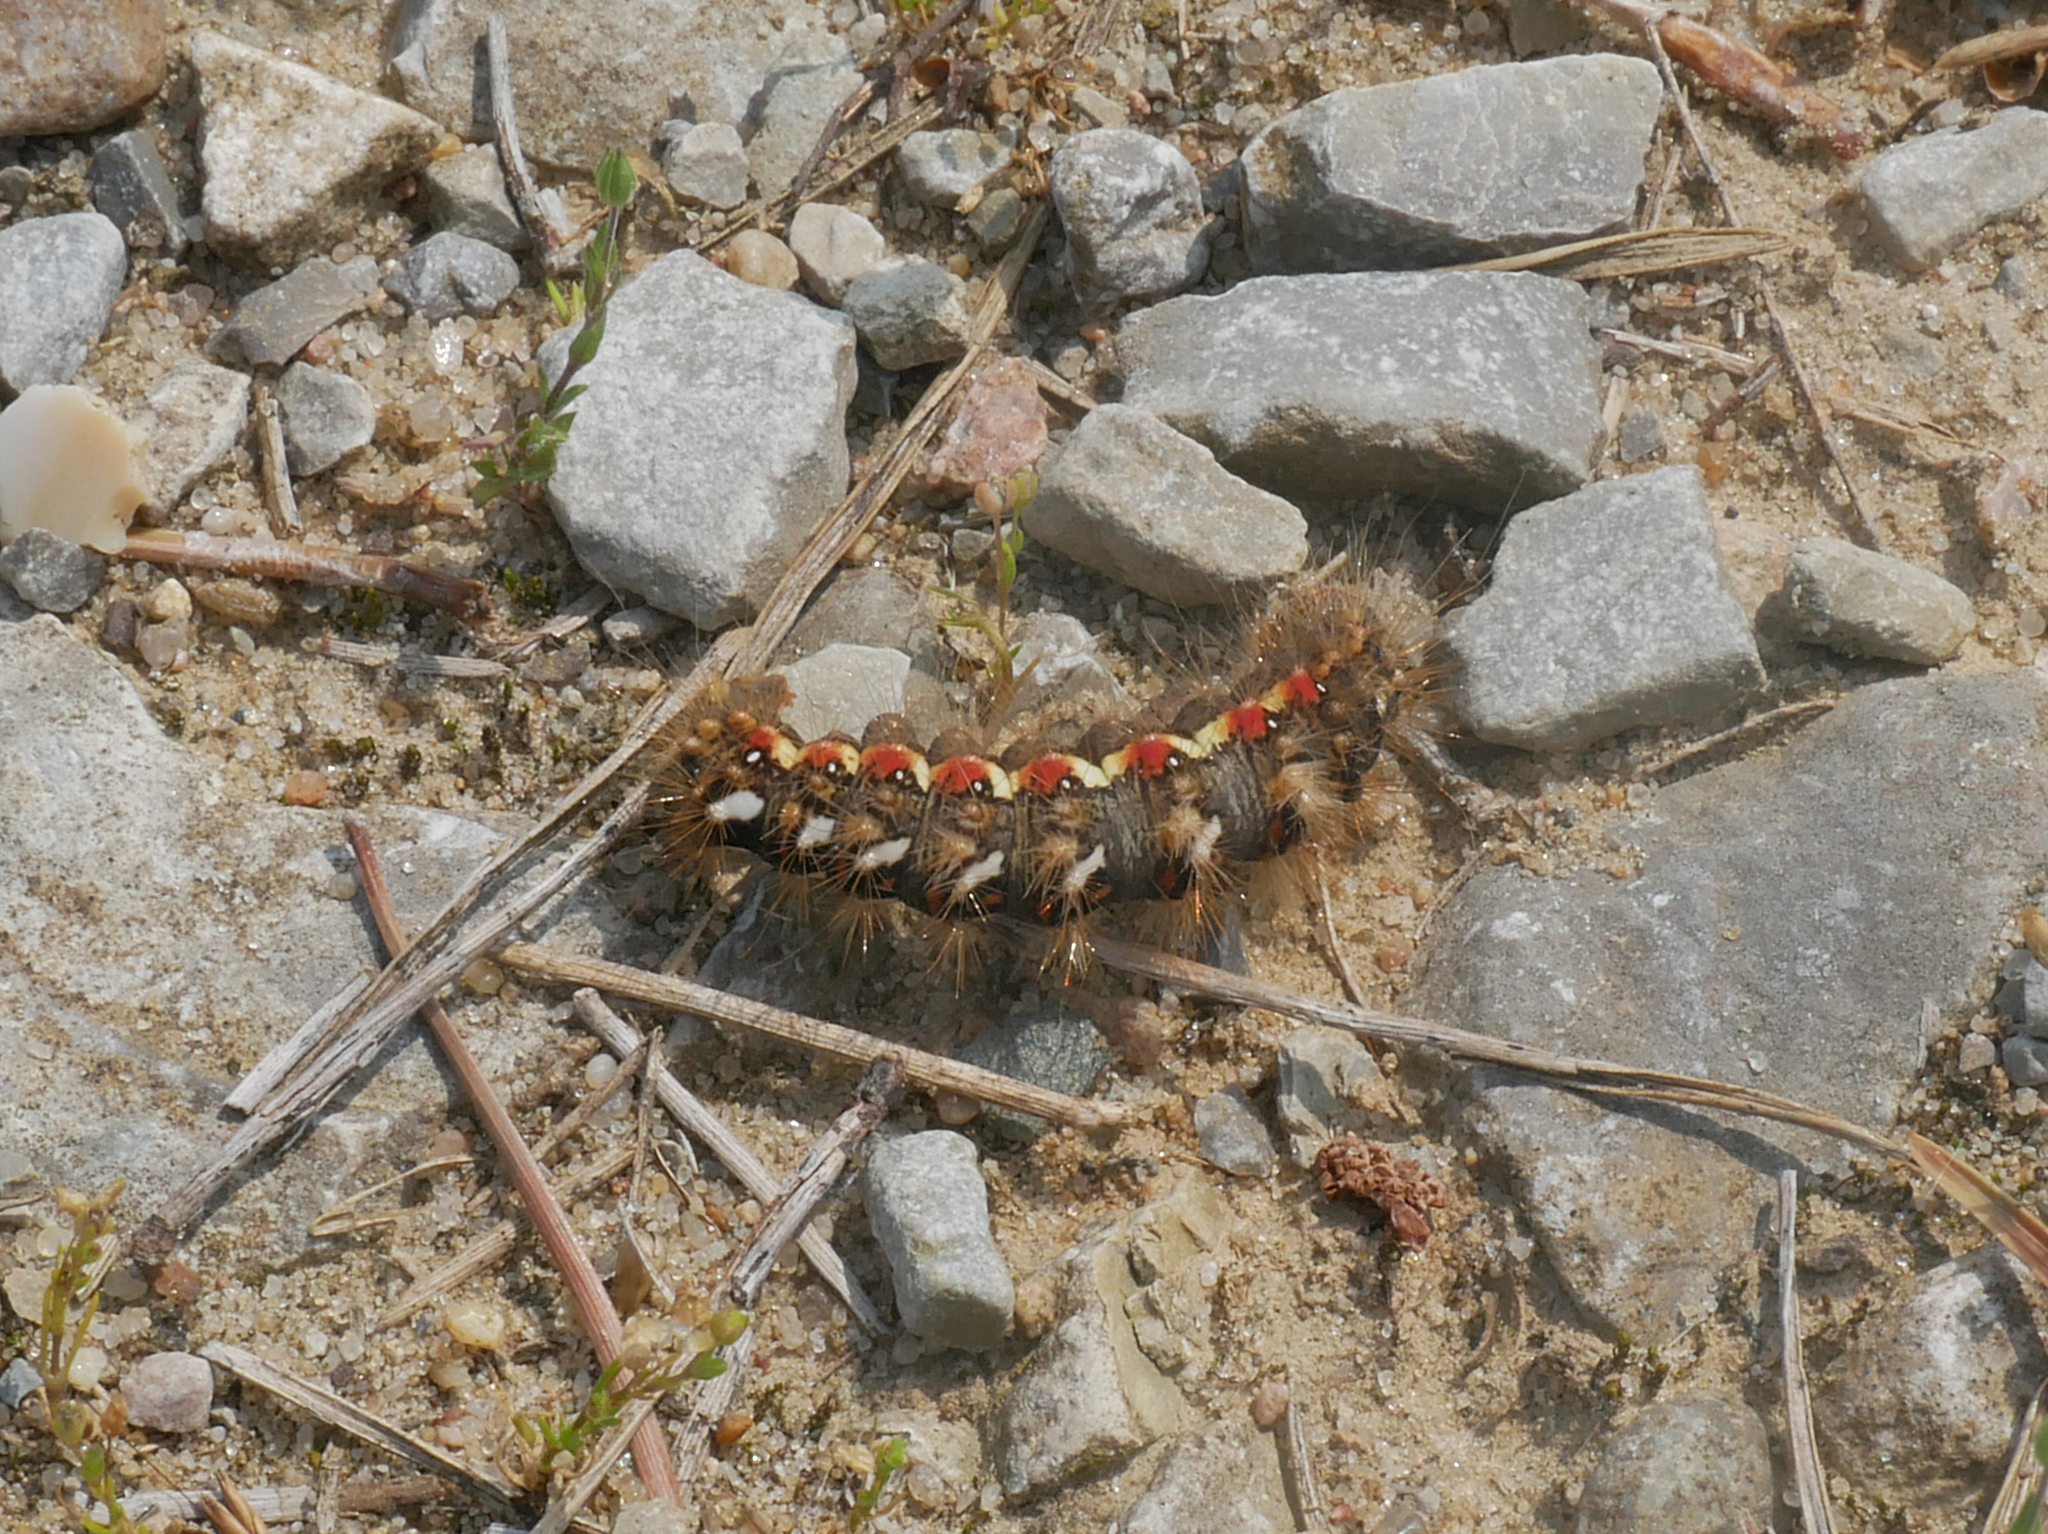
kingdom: Animalia
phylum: Arthropoda
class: Insecta
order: Lepidoptera
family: Noctuidae
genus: Acronicta
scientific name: Acronicta rumicis
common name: Knot grass
